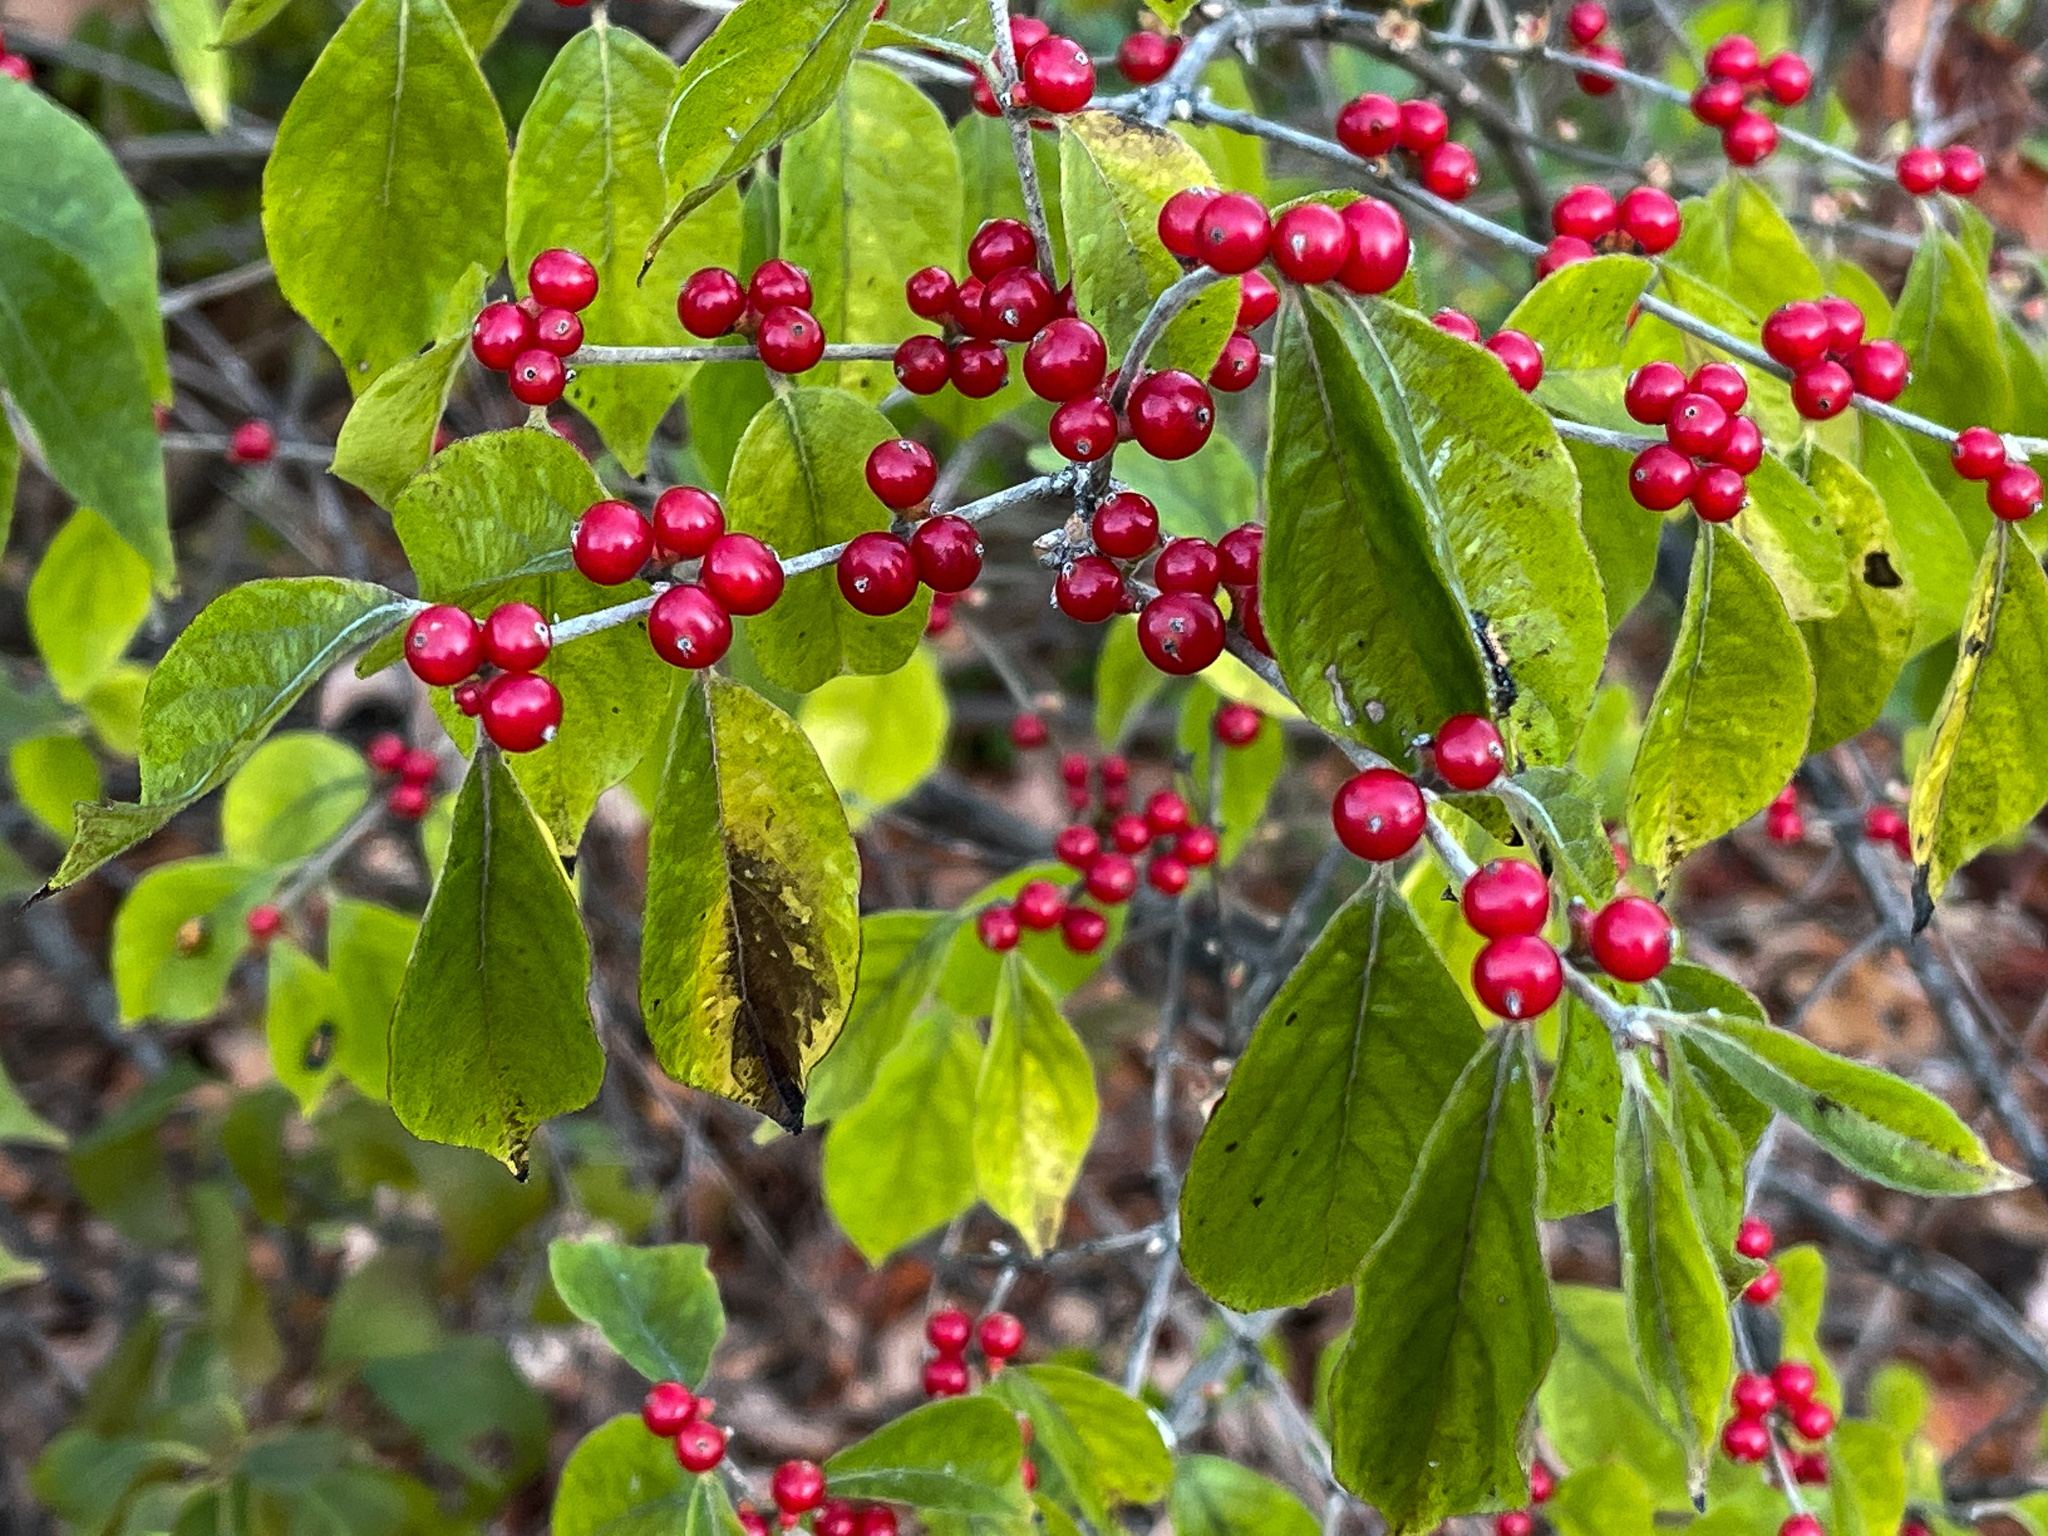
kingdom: Plantae
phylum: Tracheophyta
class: Magnoliopsida
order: Dipsacales
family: Caprifoliaceae
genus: Lonicera
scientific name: Lonicera maackii
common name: Amur honeysuckle
